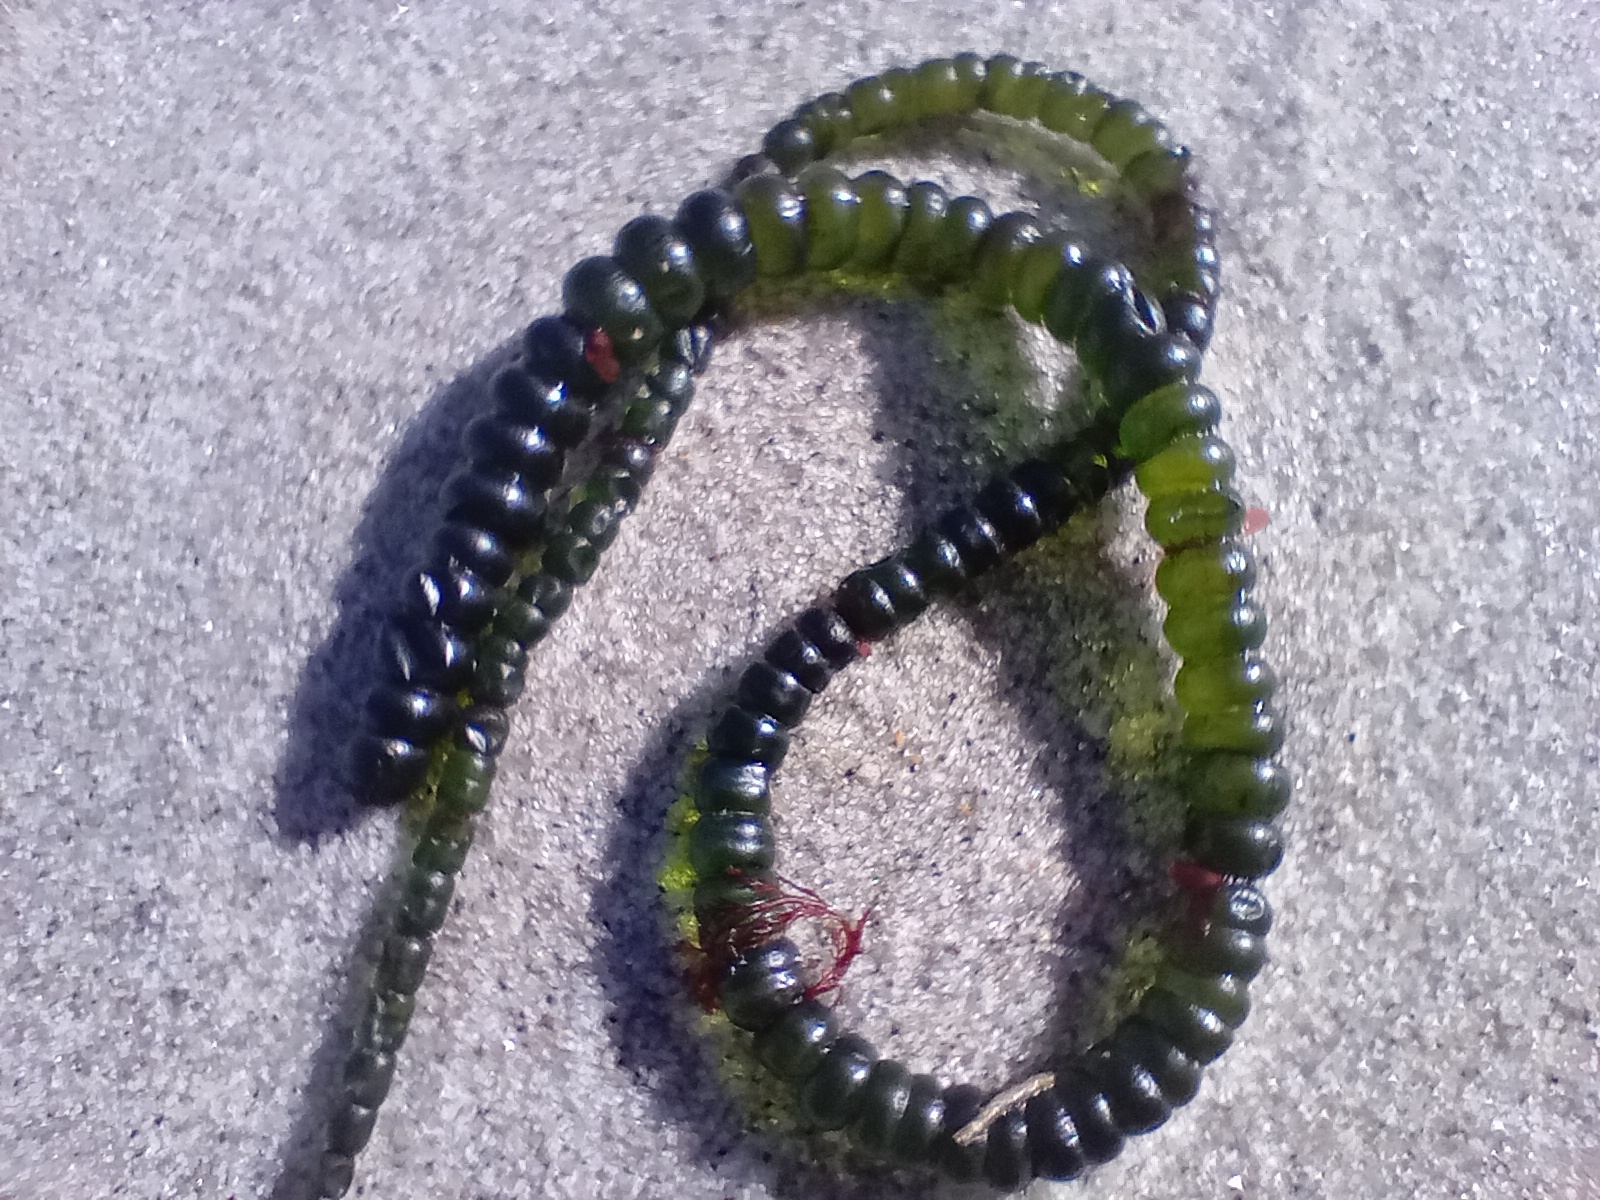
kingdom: Plantae
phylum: Chlorophyta
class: Ulvophyceae
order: Cladophorales
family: Cladophoraceae
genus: Chaetomorpha
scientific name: Chaetomorpha coliformis
